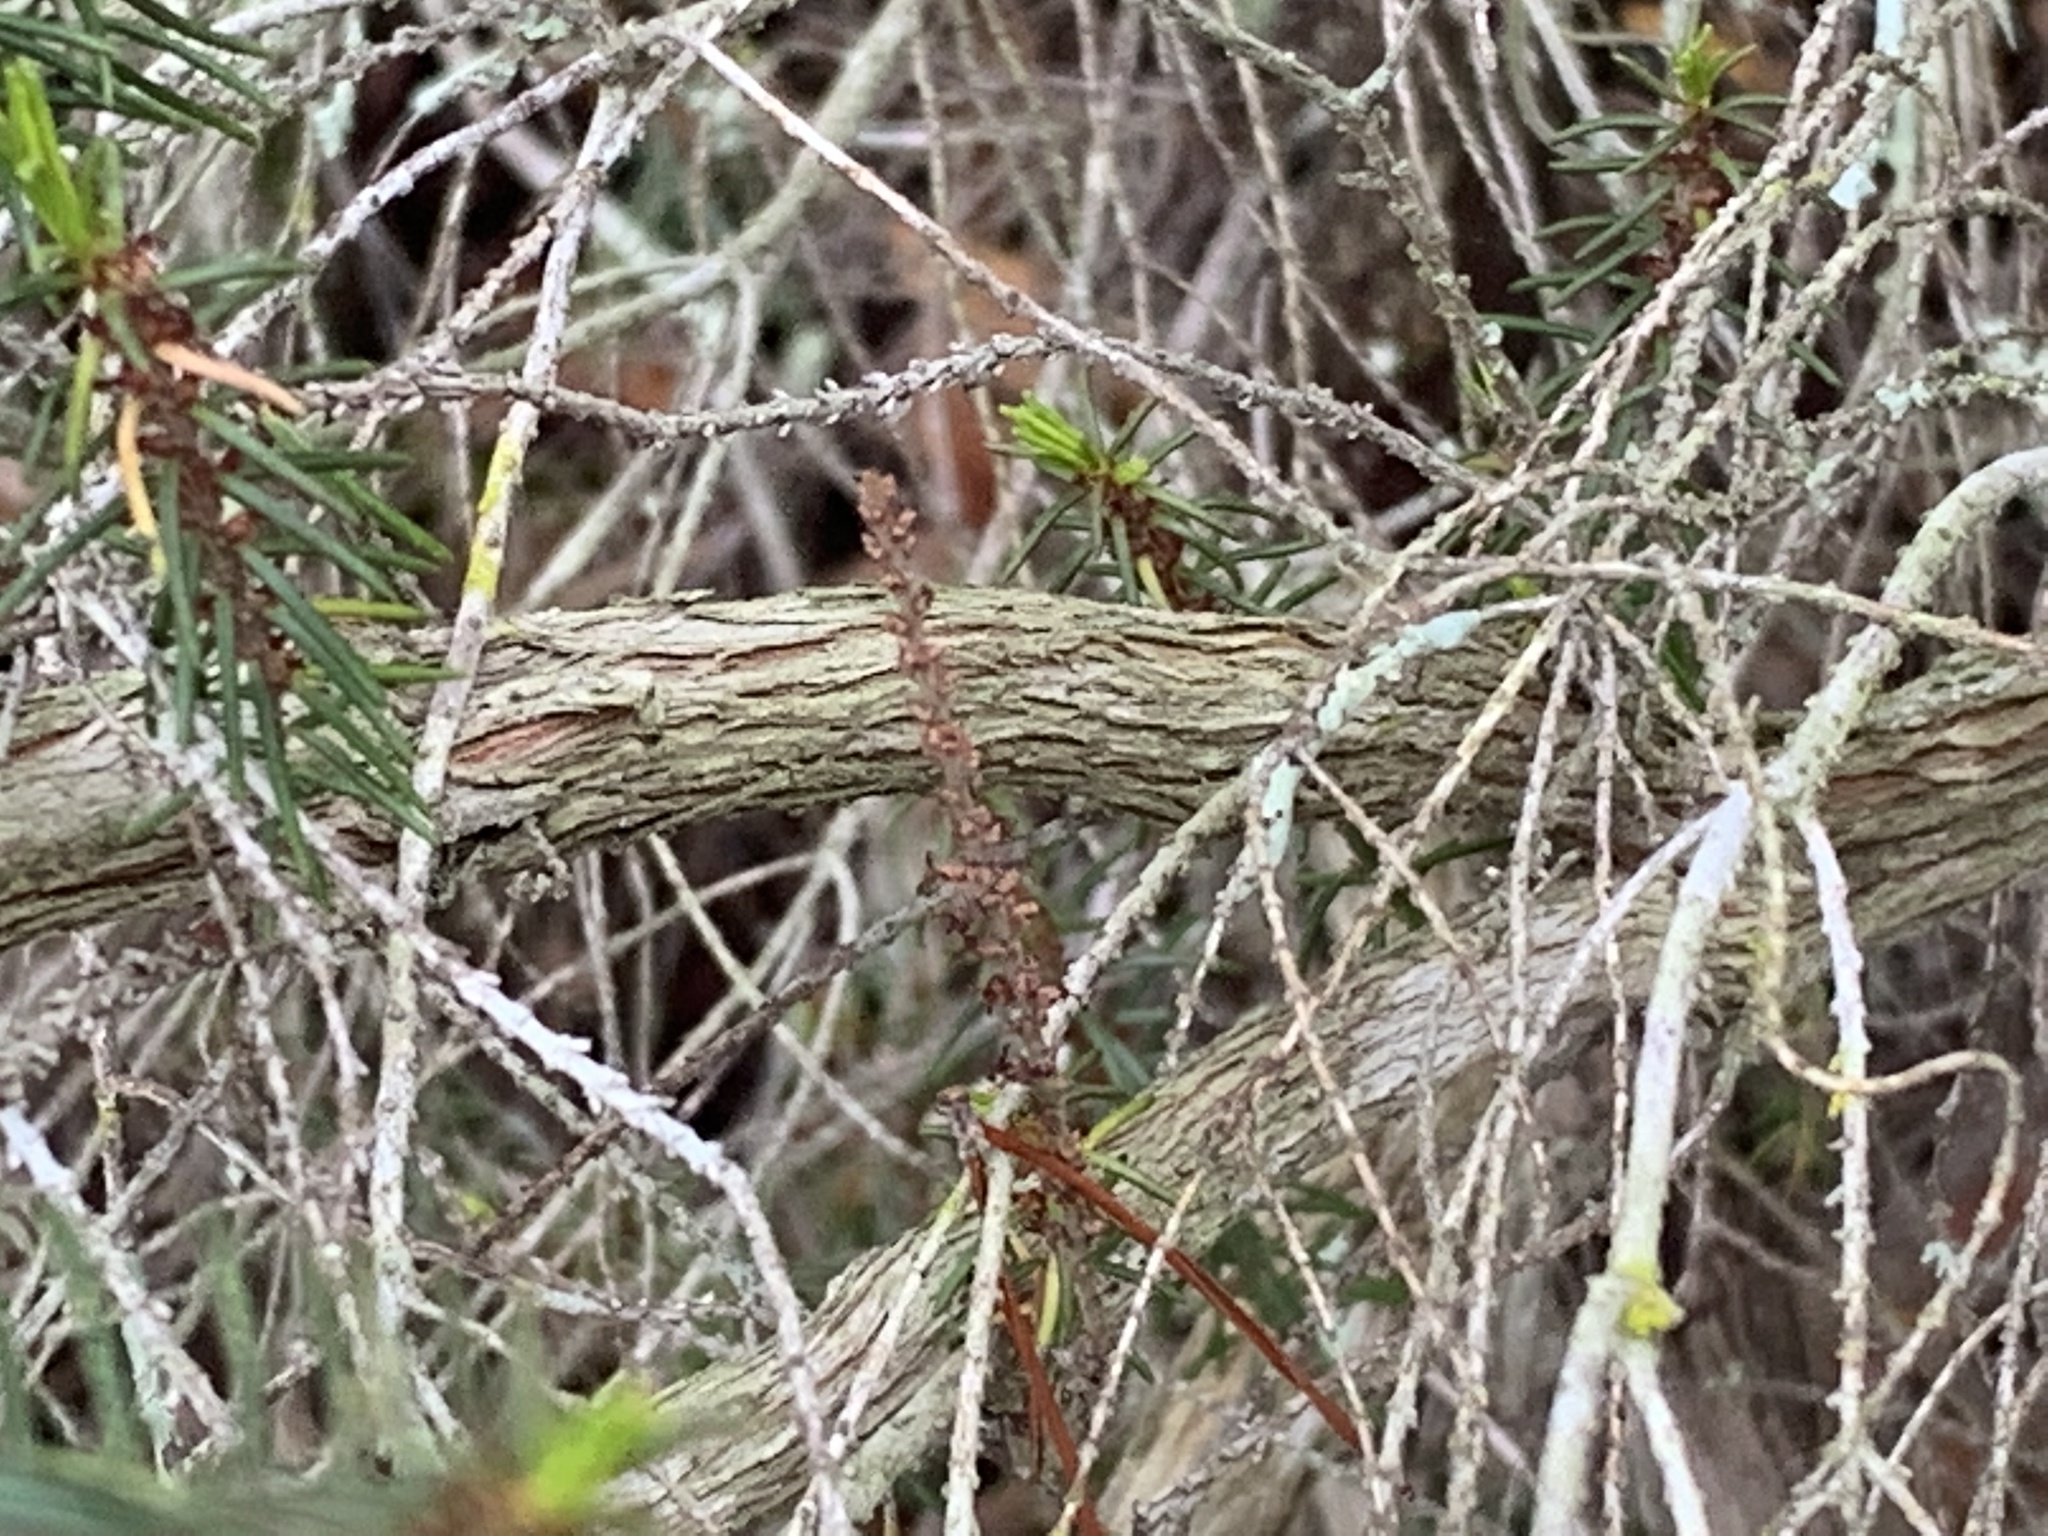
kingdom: Plantae
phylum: Tracheophyta
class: Magnoliopsida
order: Ericales
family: Ericaceae
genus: Ceratiola
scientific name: Ceratiola ericoides
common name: Sandhill-rosemary
